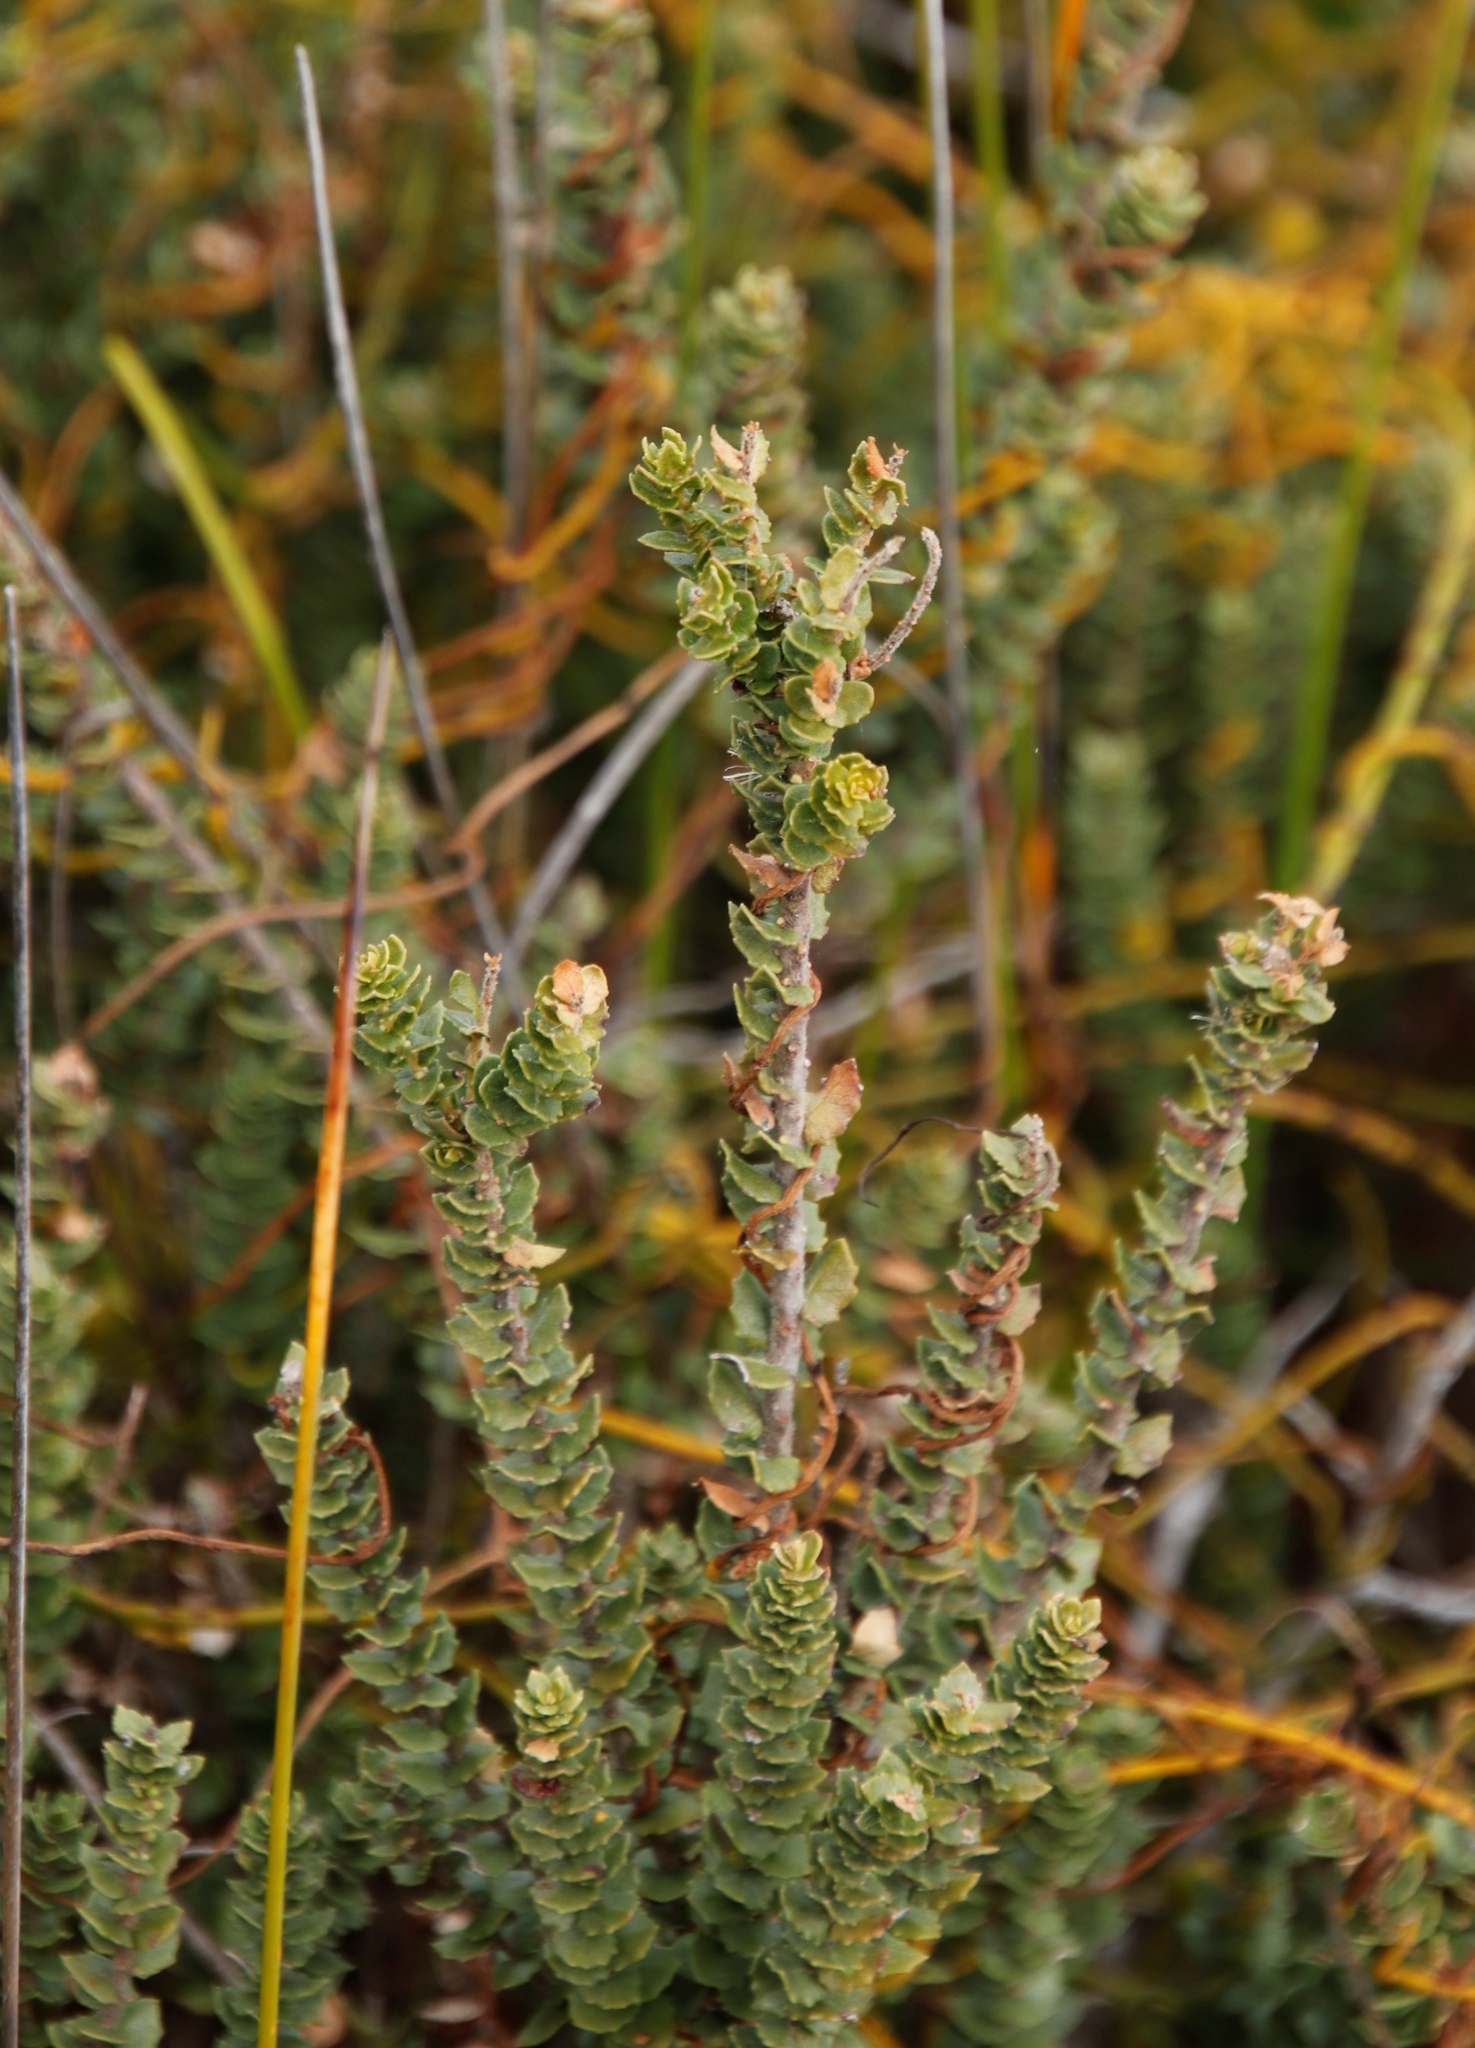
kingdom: Plantae
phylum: Tracheophyta
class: Magnoliopsida
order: Fagales
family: Myricaceae
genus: Morella
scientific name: Morella cordifolia
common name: Waxberry
